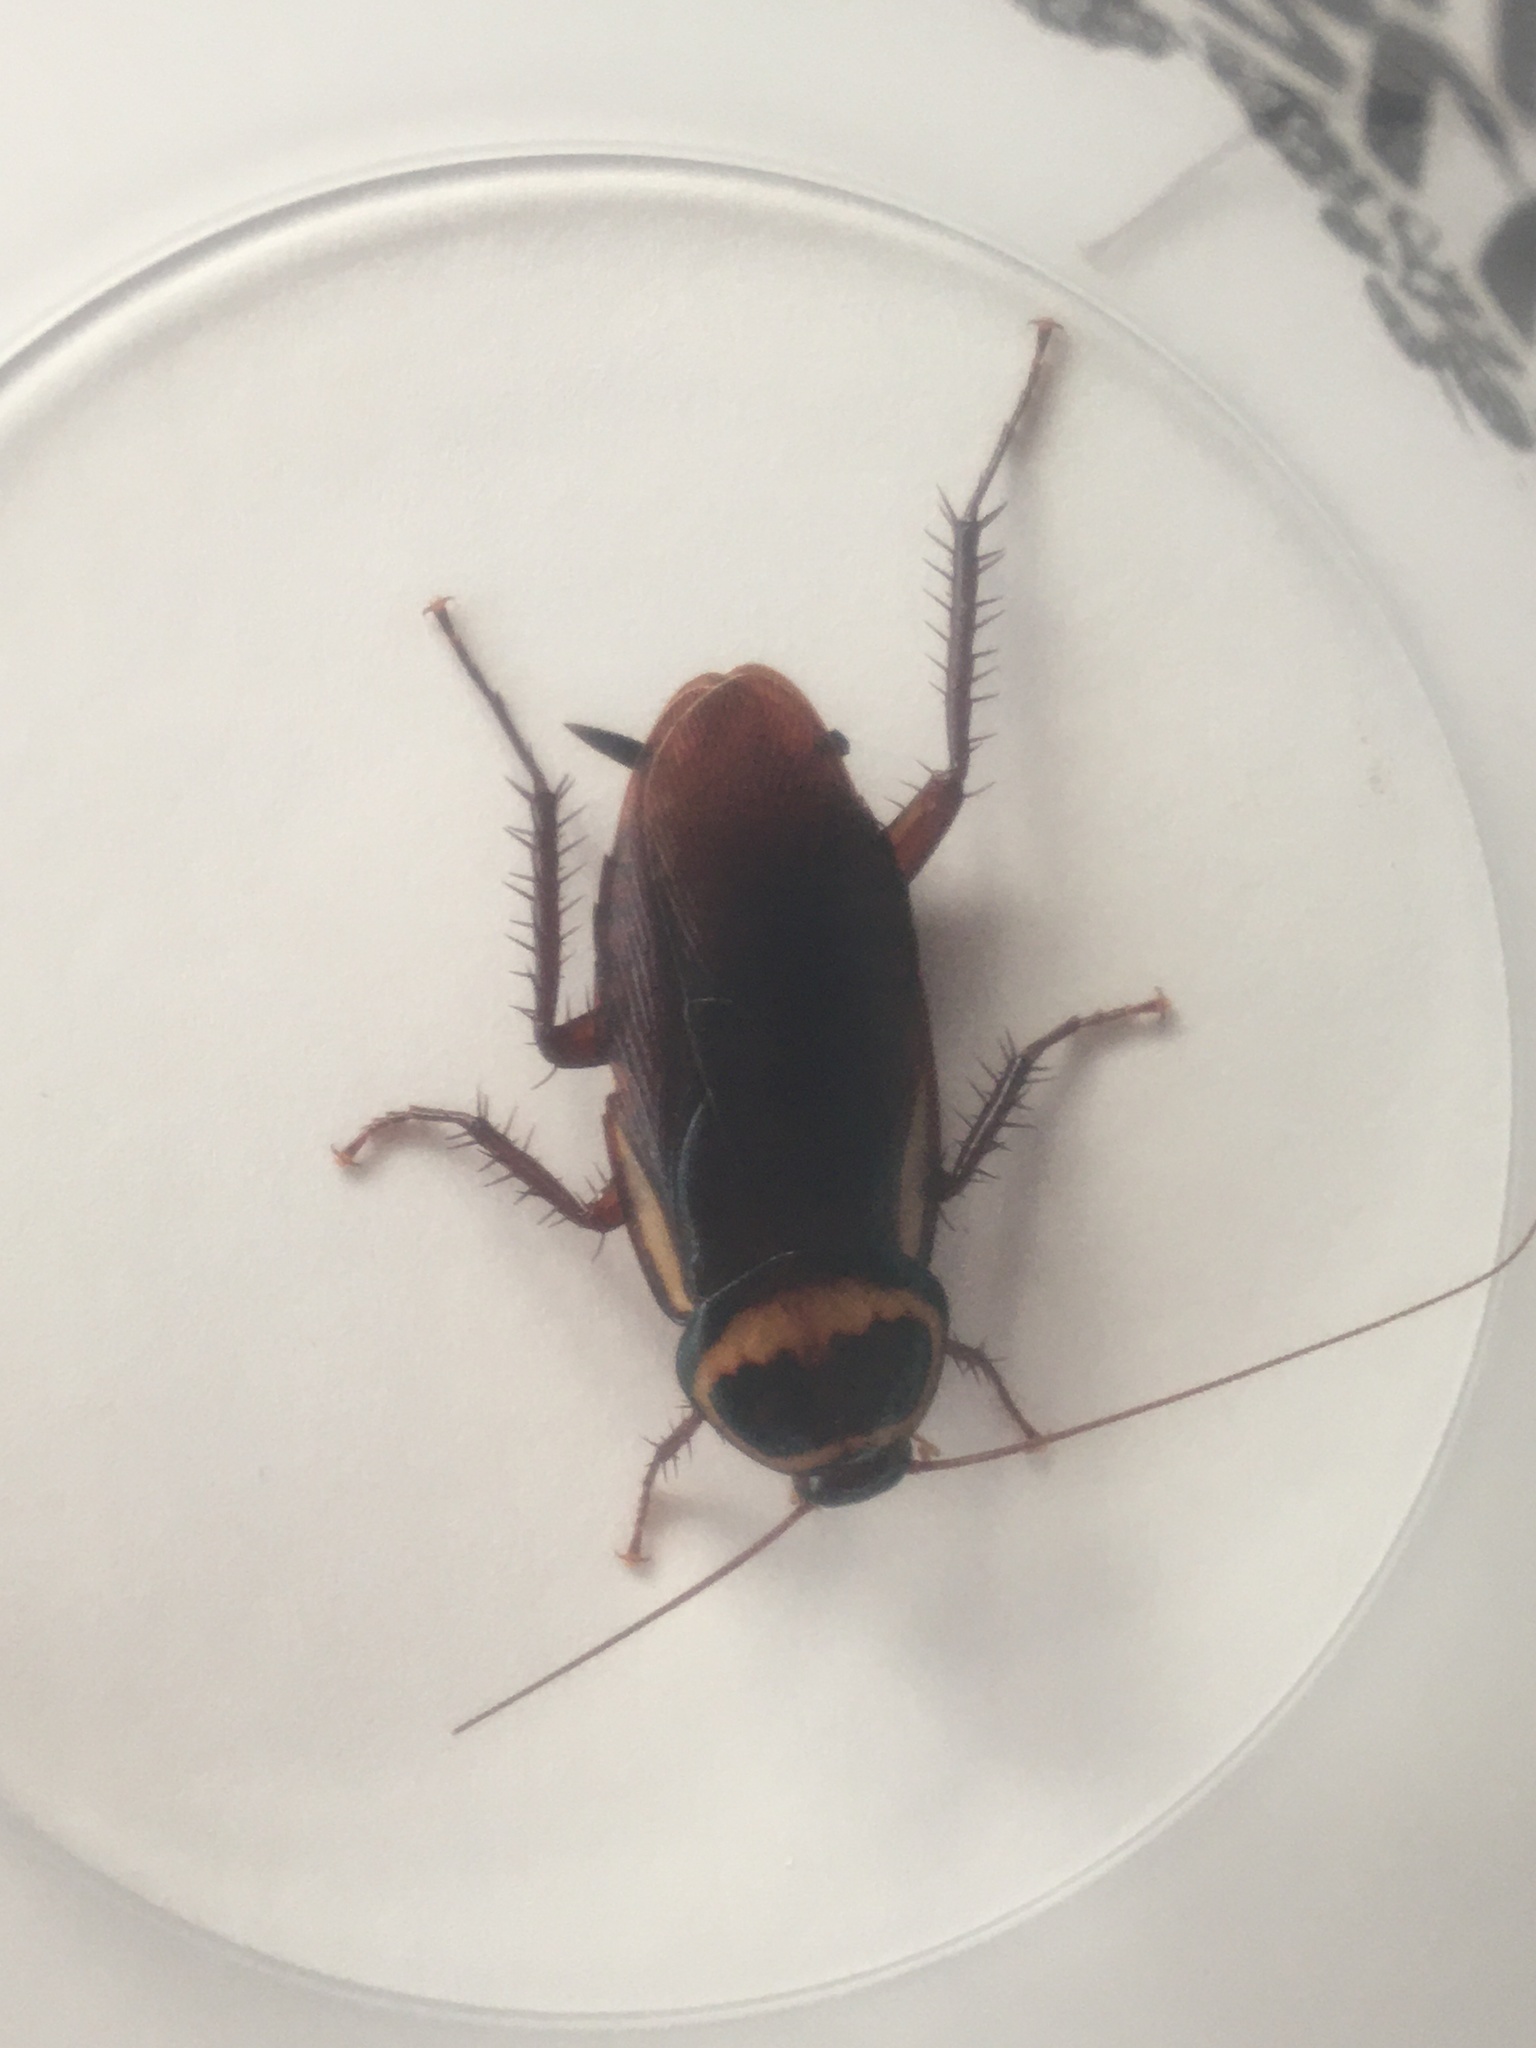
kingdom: Animalia
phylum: Arthropoda
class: Insecta
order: Blattodea
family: Blattidae
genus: Periplaneta
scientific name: Periplaneta australasiae
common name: Australian cockroach
